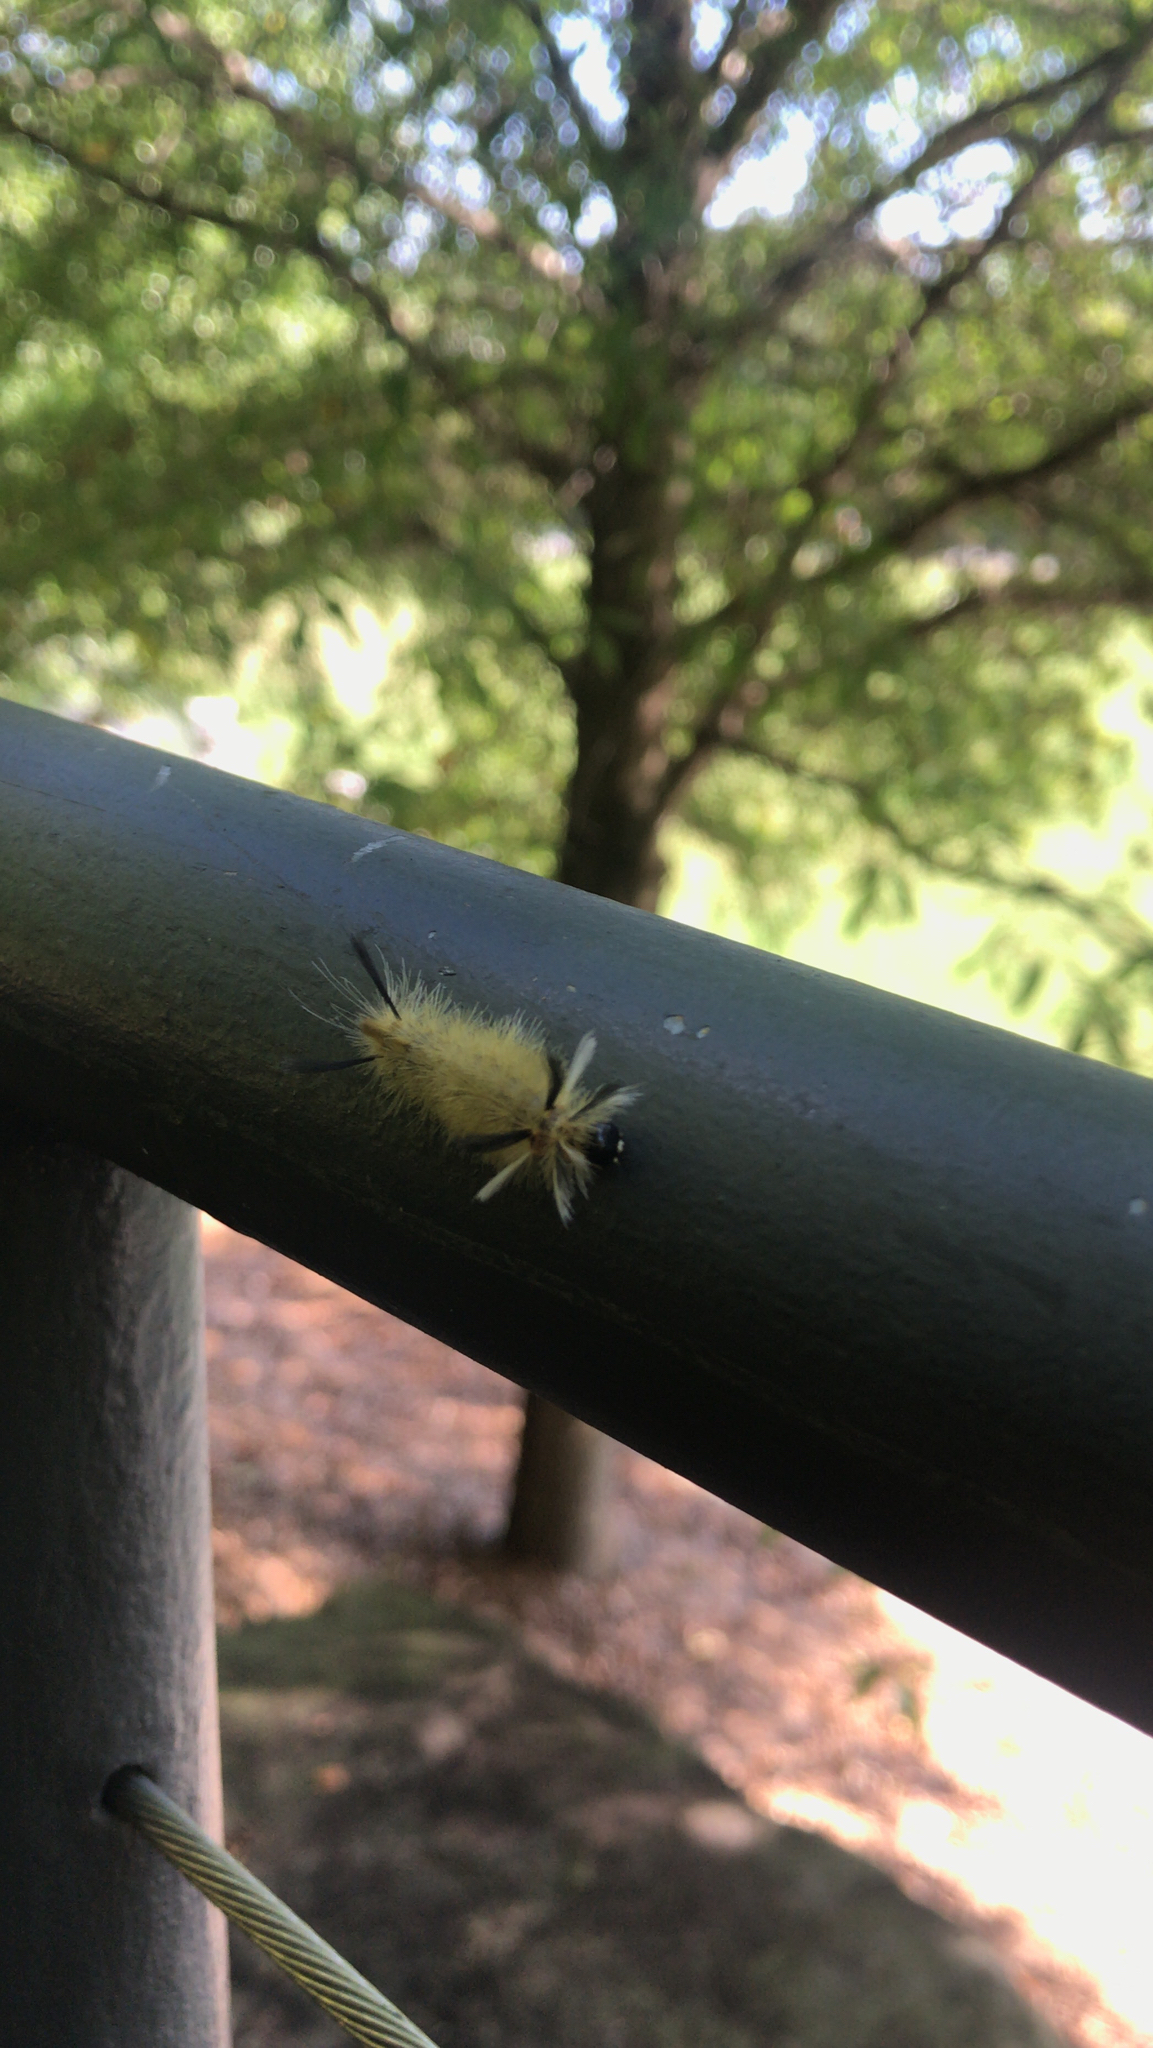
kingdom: Animalia
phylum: Arthropoda
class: Insecta
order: Lepidoptera
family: Erebidae
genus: Halysidota
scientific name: Halysidota tessellaris
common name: Banded tussock moth
